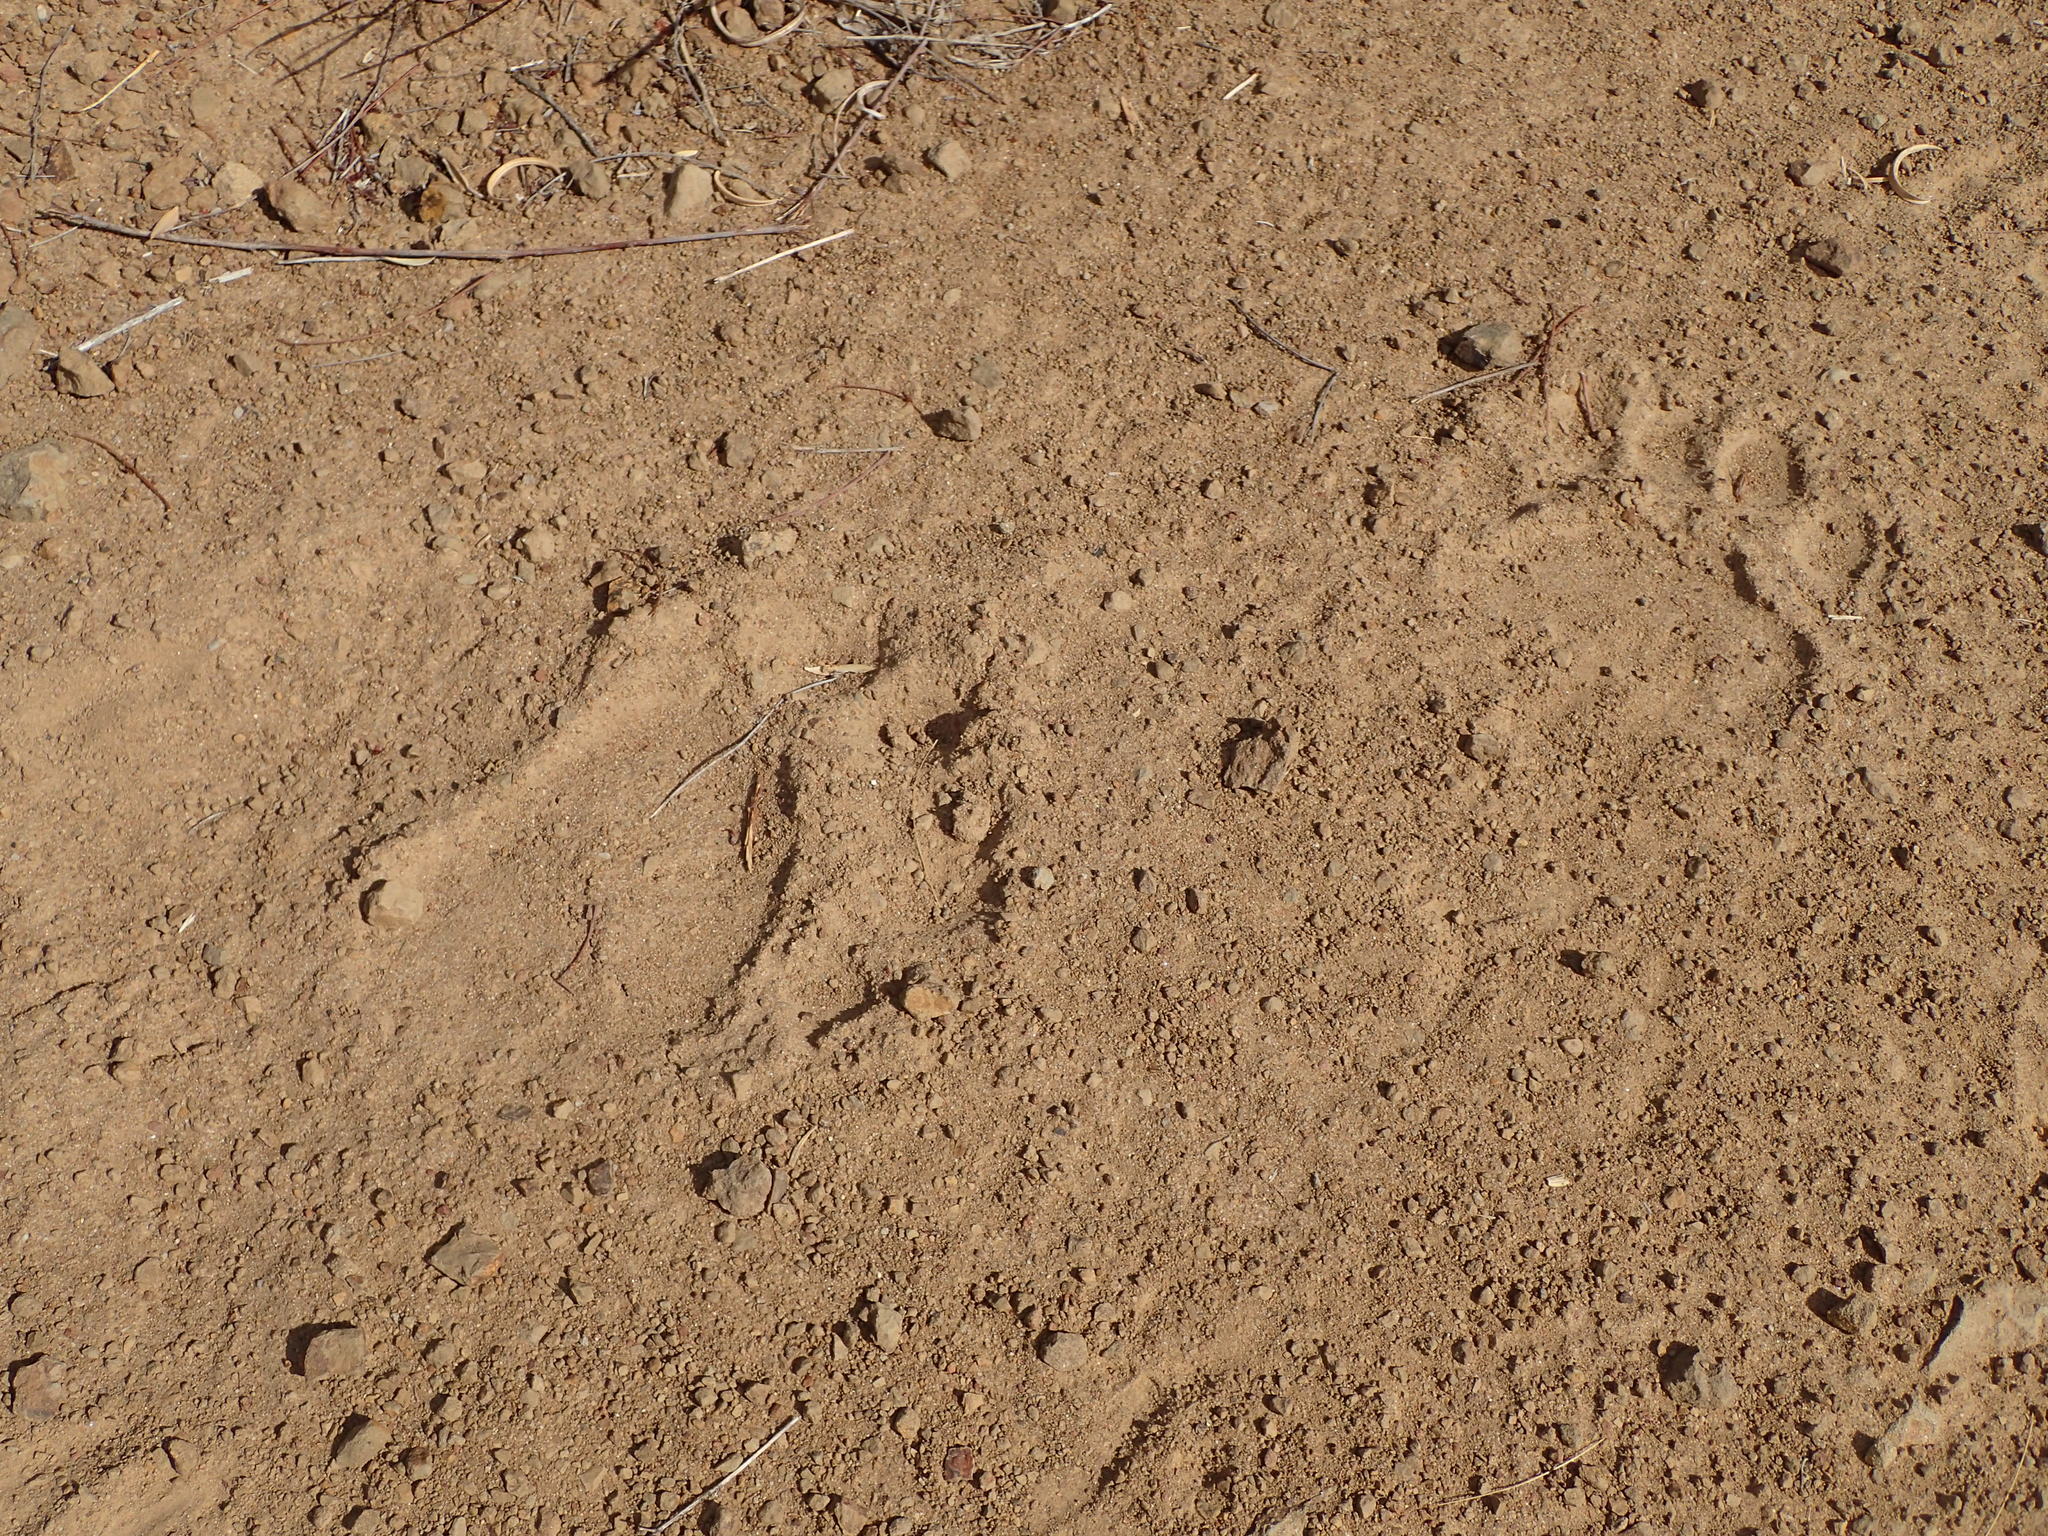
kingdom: Animalia
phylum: Chordata
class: Mammalia
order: Carnivora
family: Ursidae
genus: Ursus
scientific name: Ursus americanus
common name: American black bear
